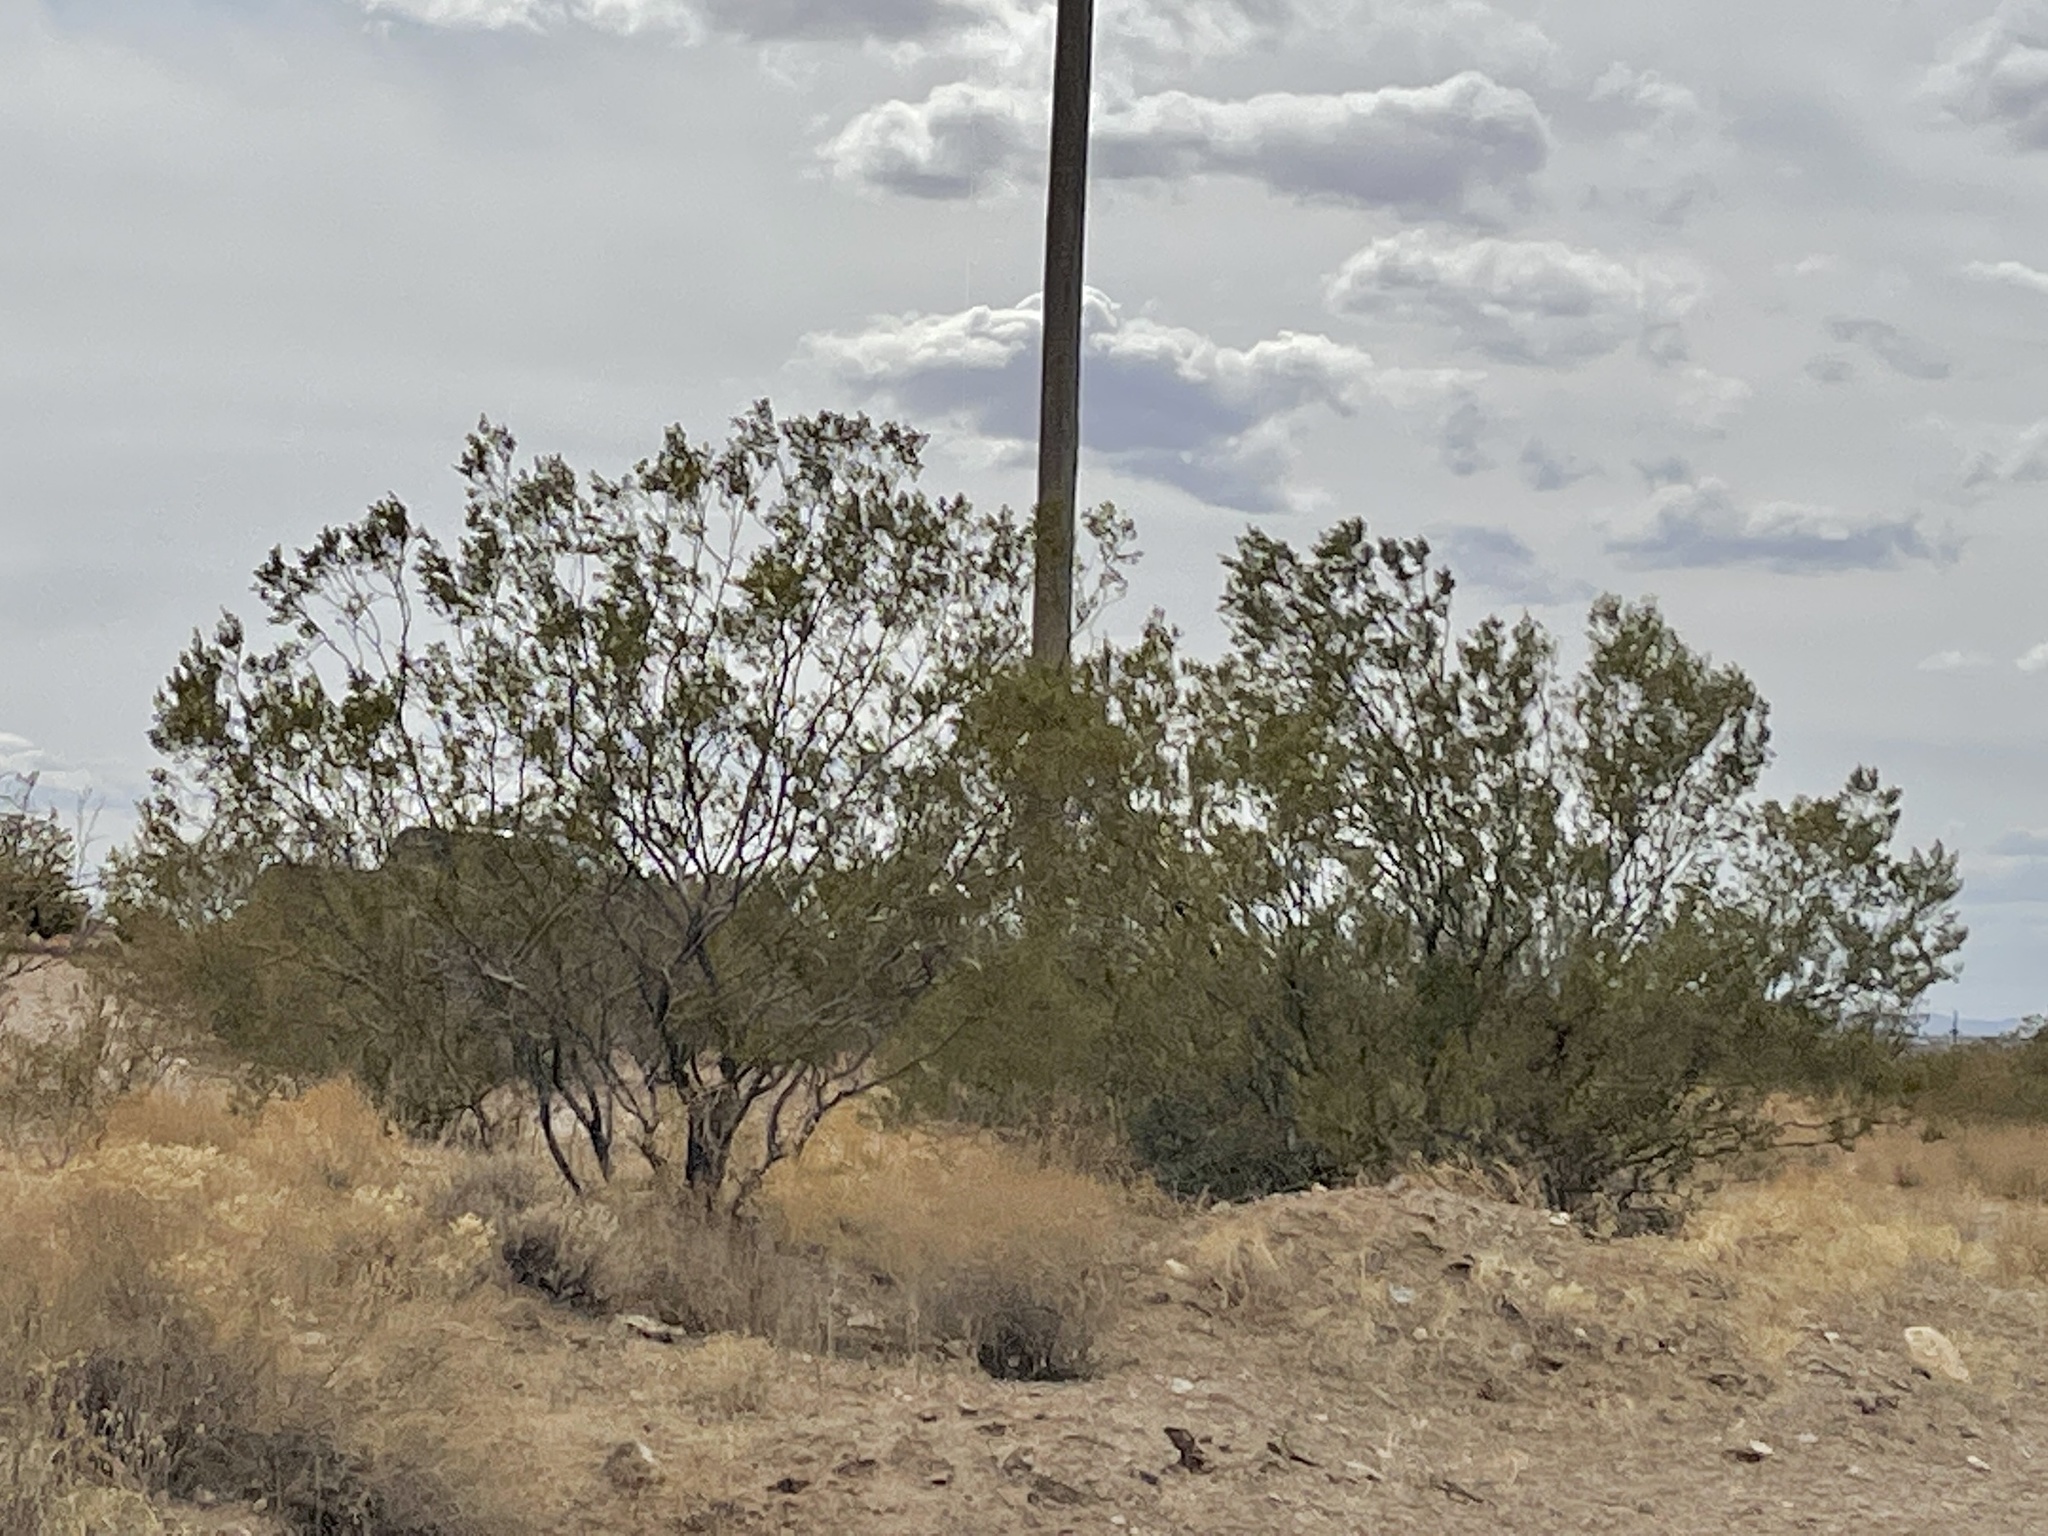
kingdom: Plantae
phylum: Tracheophyta
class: Magnoliopsida
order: Zygophyllales
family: Zygophyllaceae
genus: Larrea
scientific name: Larrea tridentata
